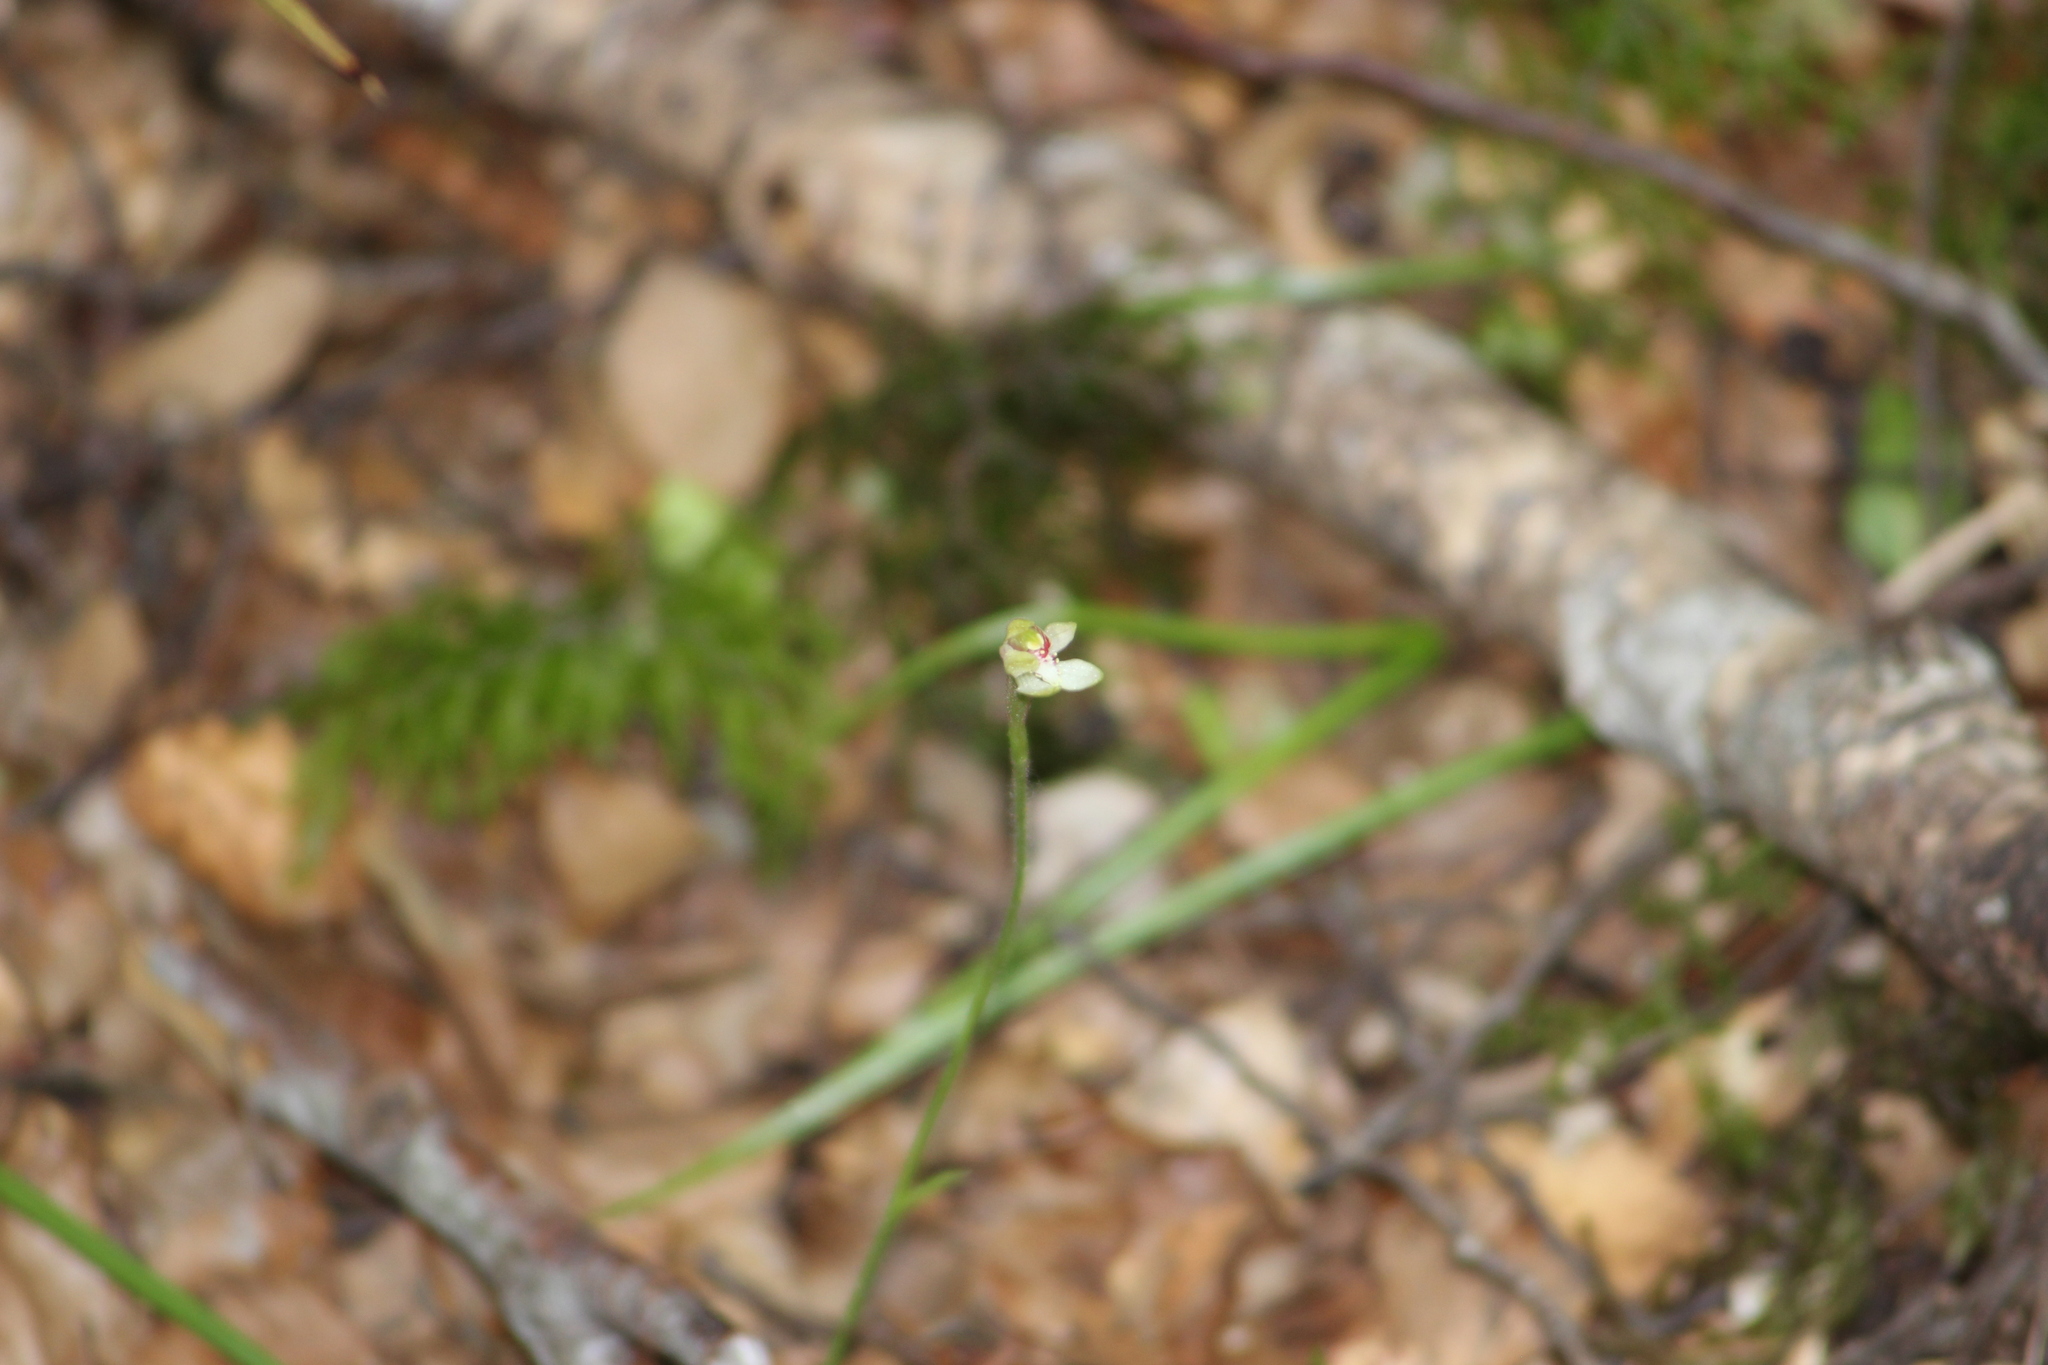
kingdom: Plantae
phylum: Tracheophyta
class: Liliopsida
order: Asparagales
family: Orchidaceae
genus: Caladenia
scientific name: Caladenia chlorostyla
